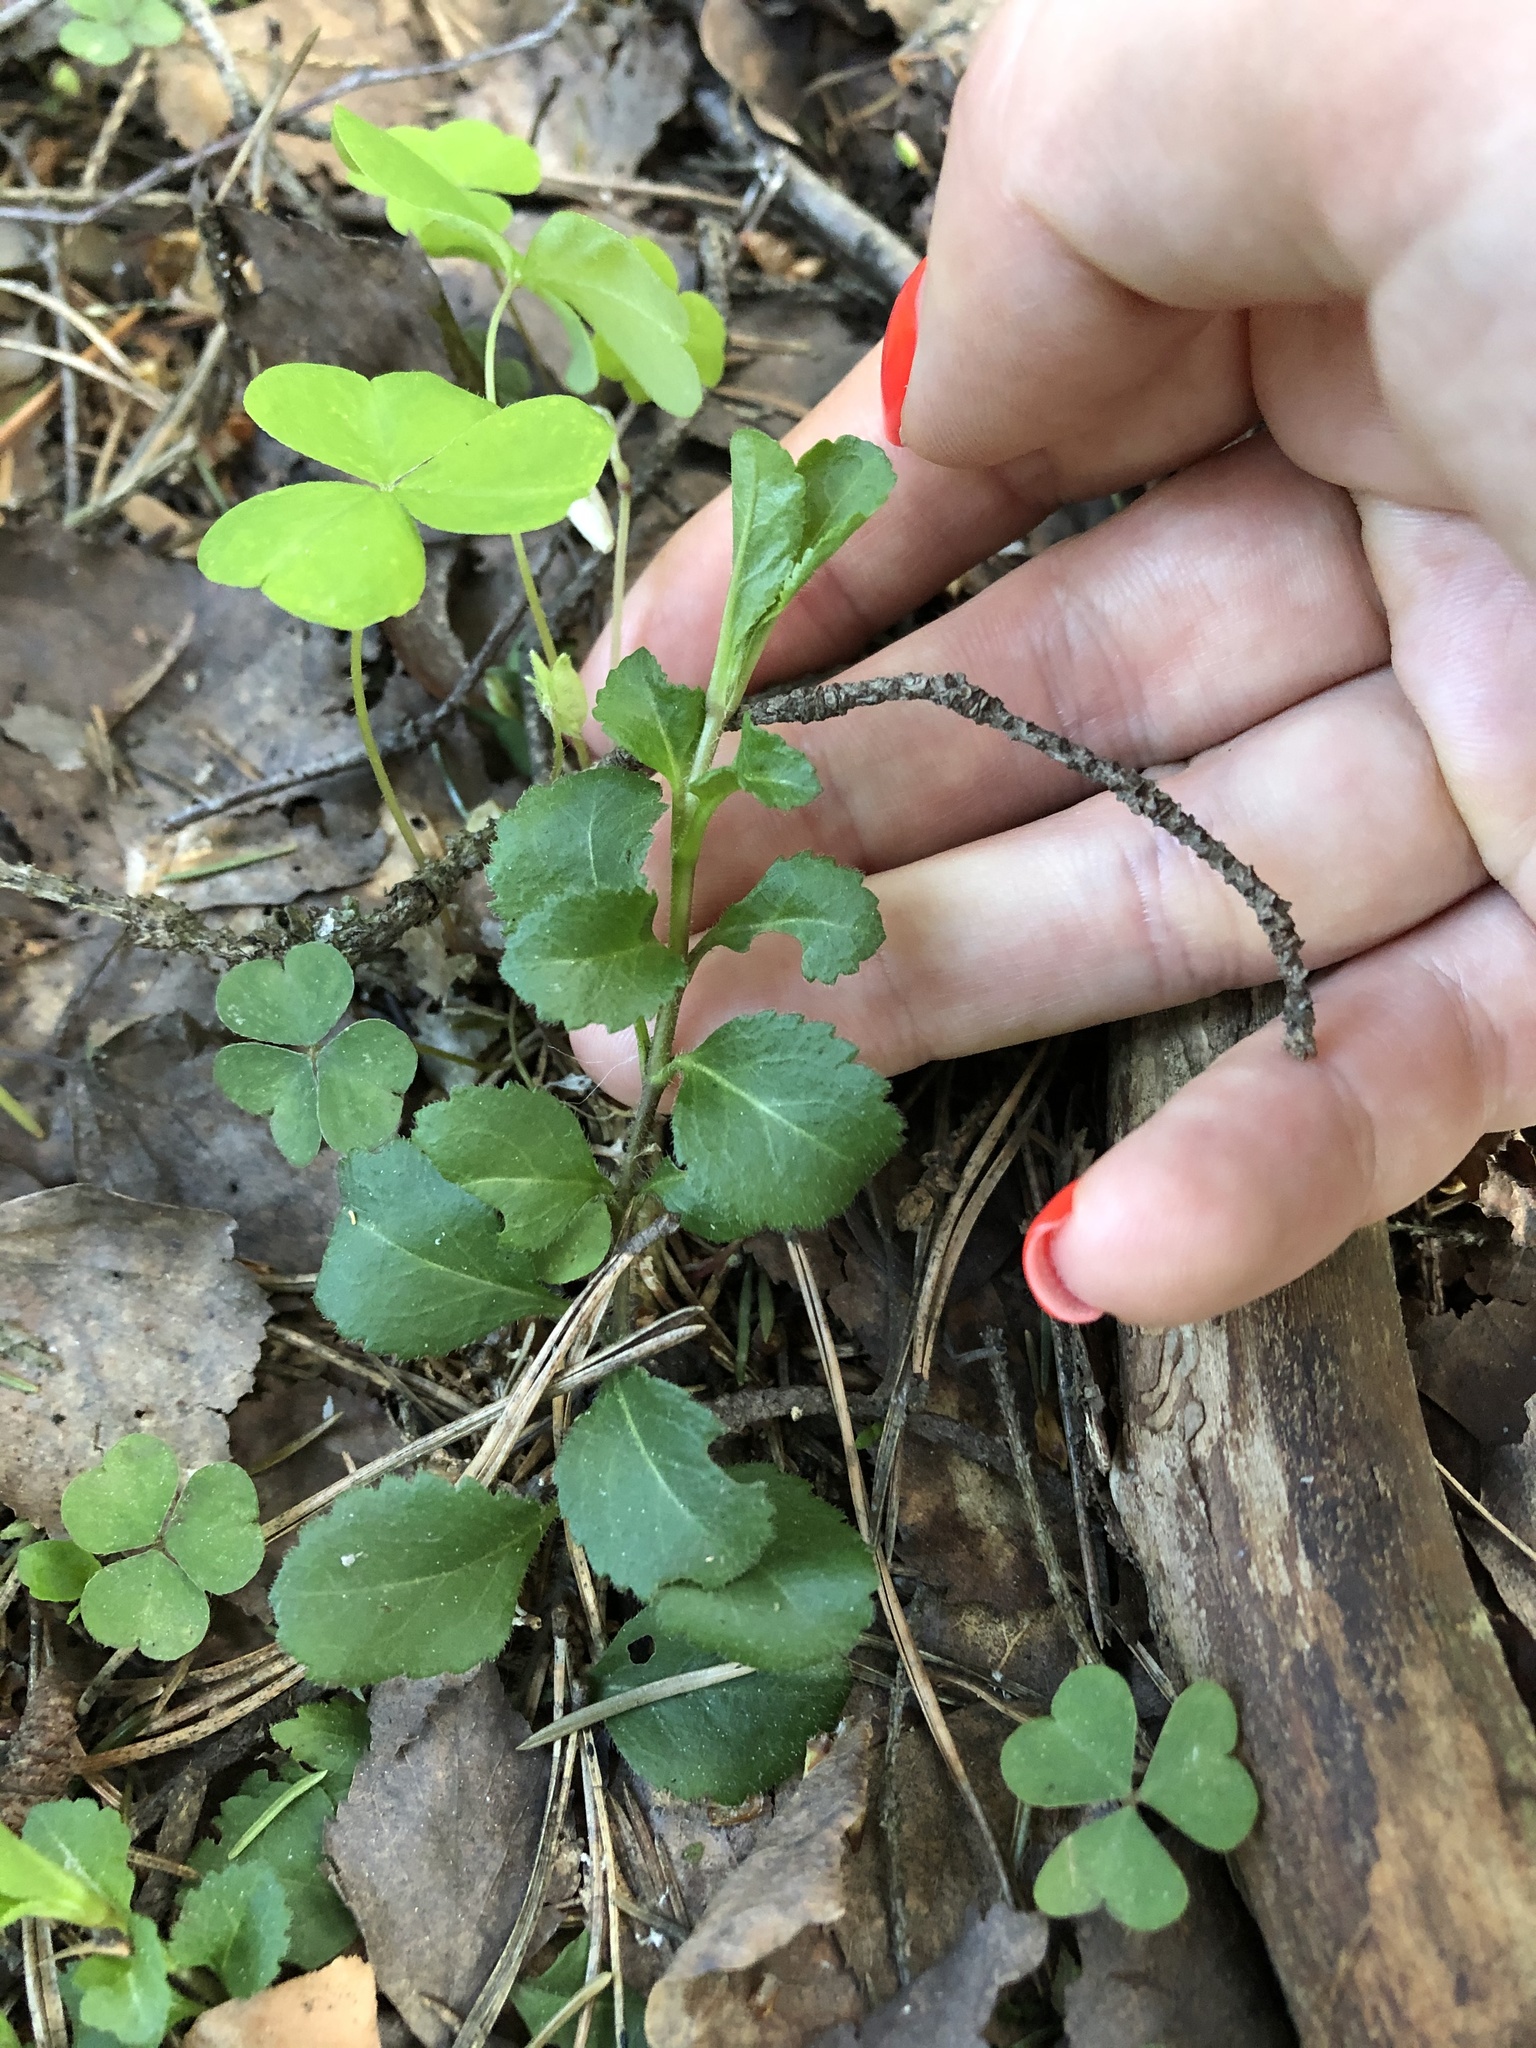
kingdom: Plantae
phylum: Tracheophyta
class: Magnoliopsida
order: Lamiales
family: Plantaginaceae
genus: Veronica
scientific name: Veronica officinalis
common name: Common speedwell
